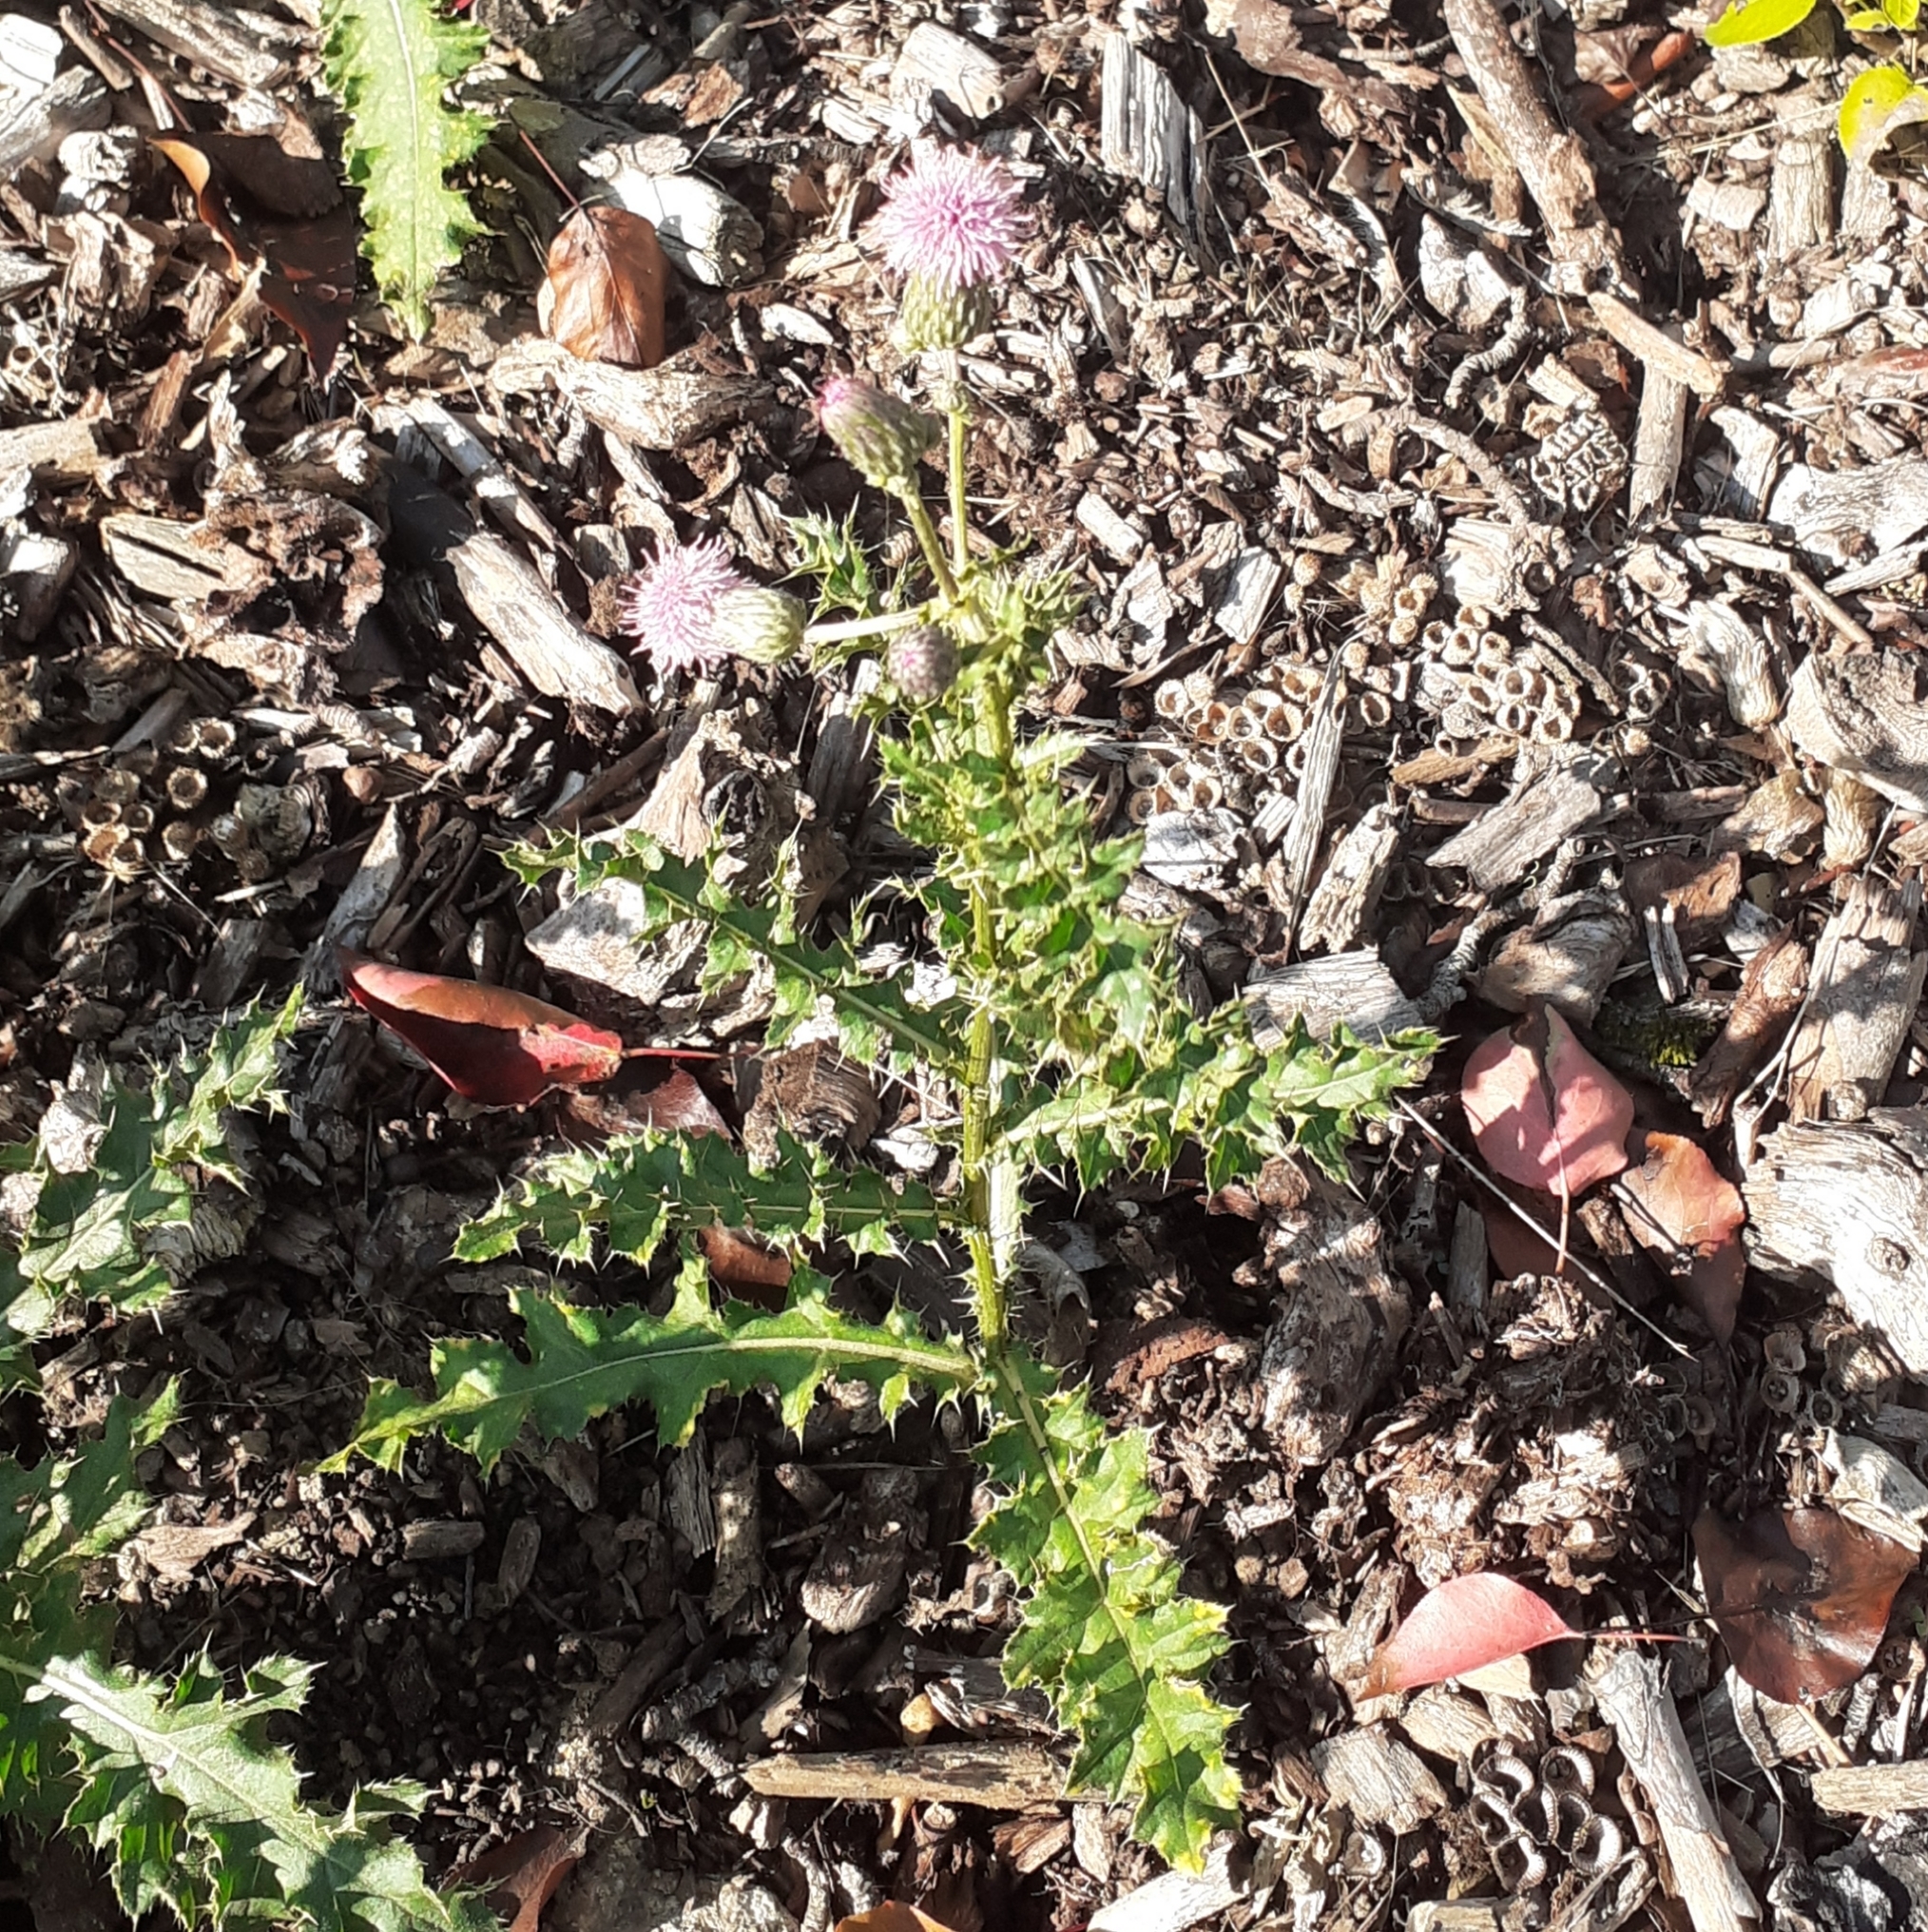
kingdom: Plantae
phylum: Tracheophyta
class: Magnoliopsida
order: Asterales
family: Asteraceae
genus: Cirsium
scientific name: Cirsium arvense
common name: Creeping thistle
